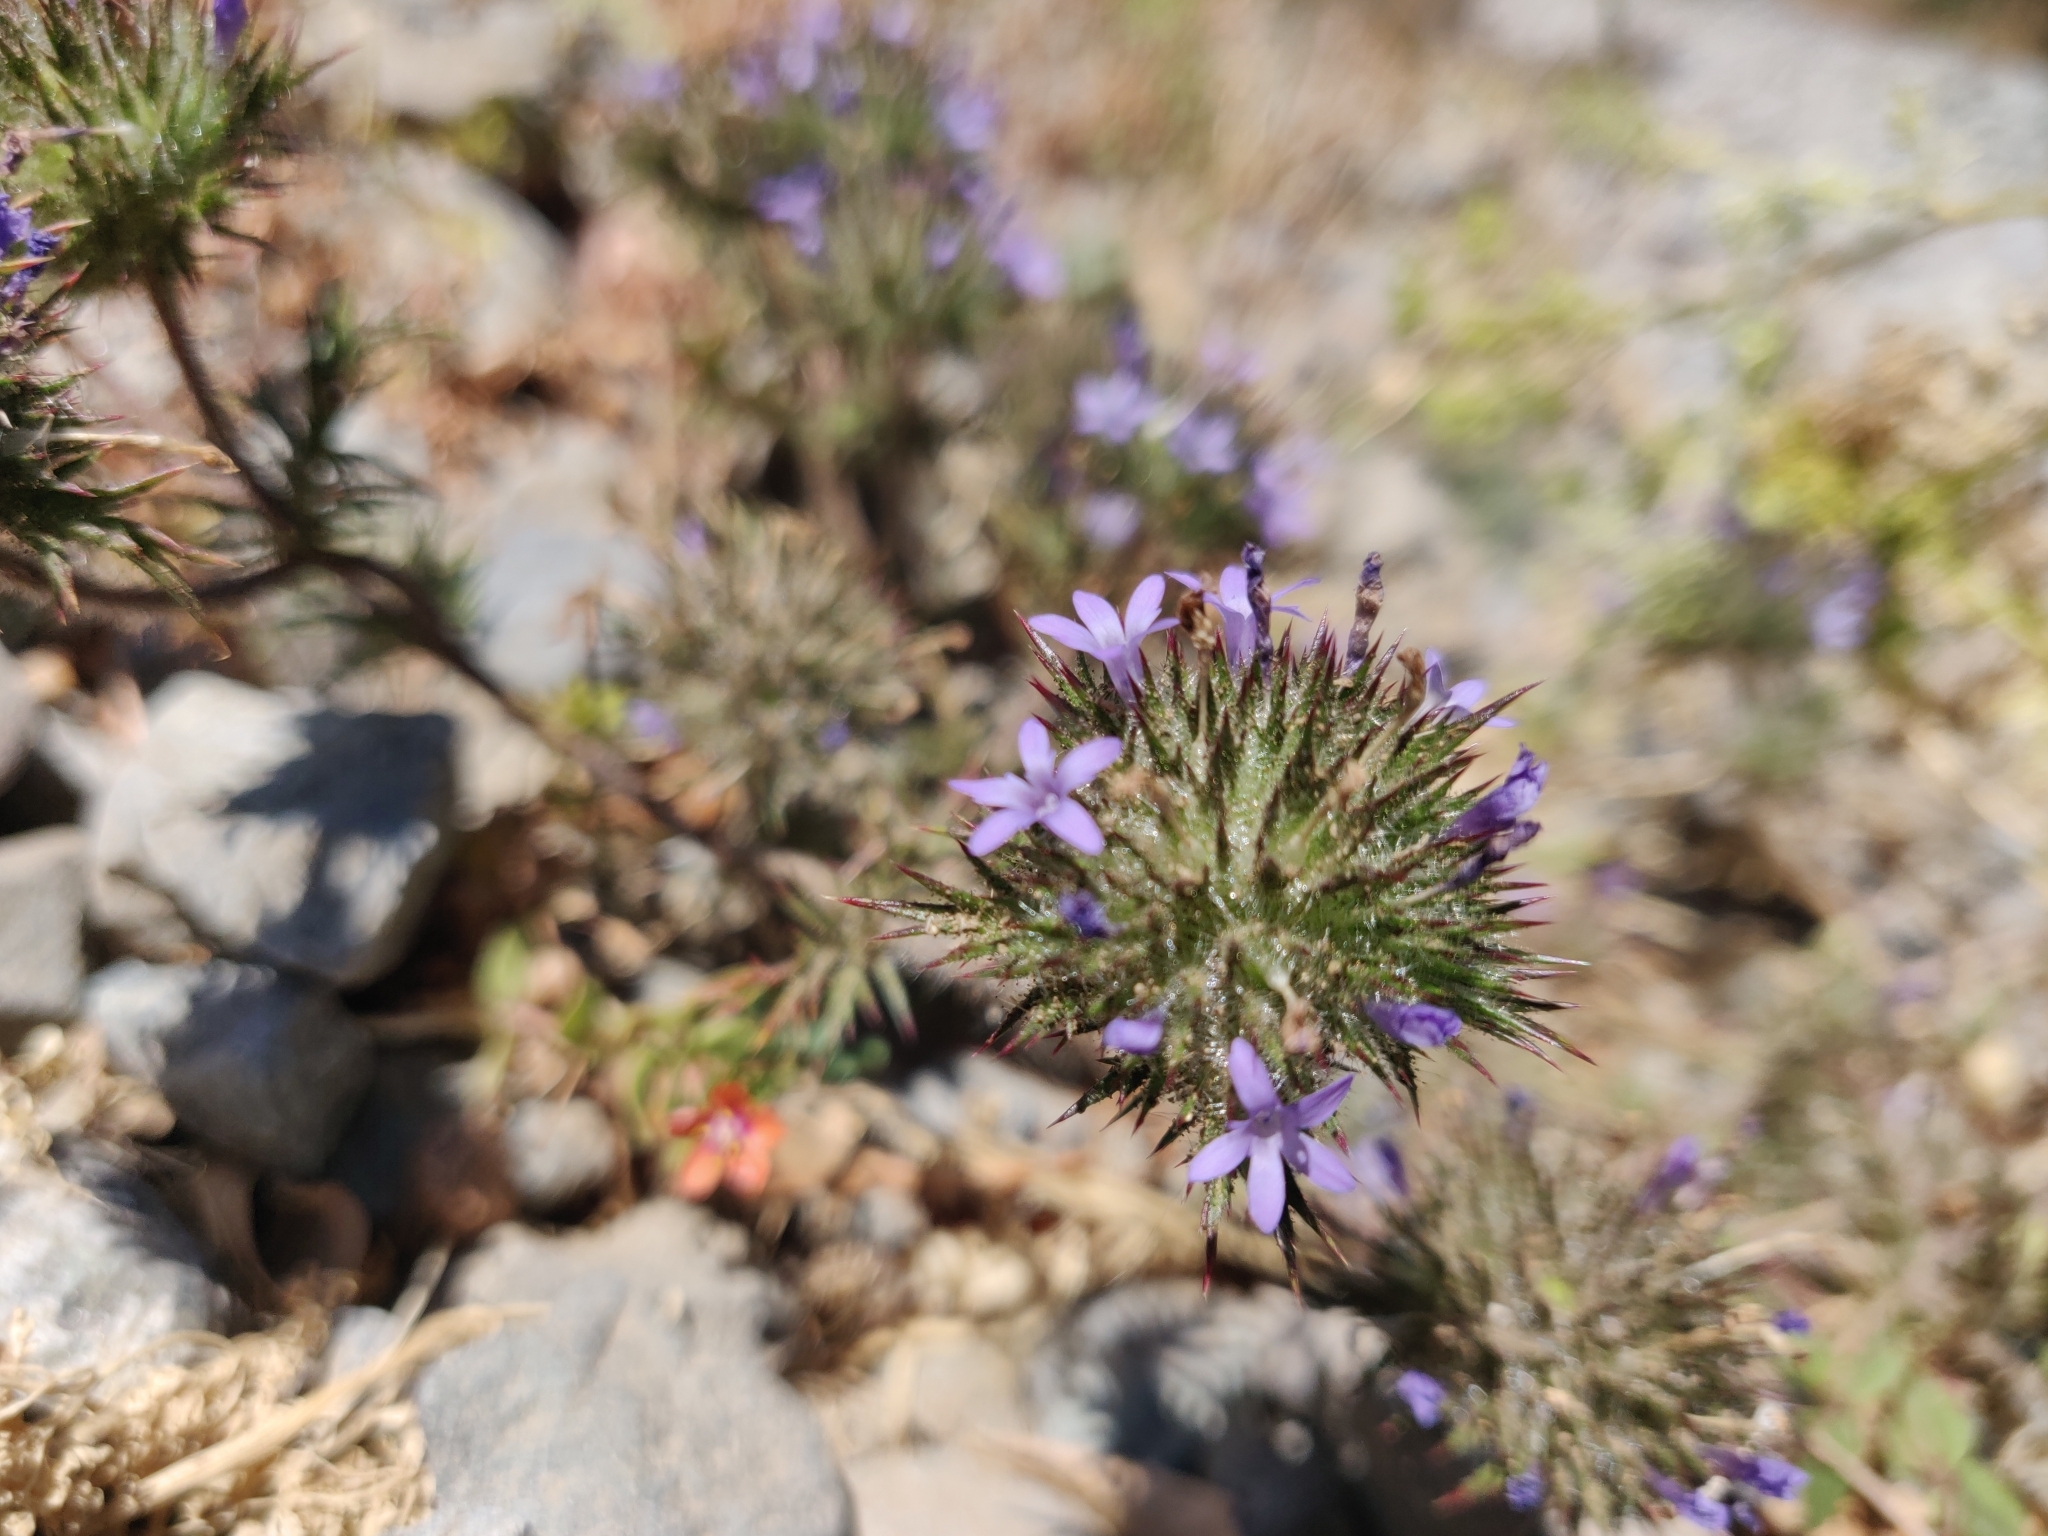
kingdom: Plantae
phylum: Tracheophyta
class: Magnoliopsida
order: Ericales
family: Polemoniaceae
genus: Navarretia
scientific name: Navarretia squarrosa
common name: Skunkweed
